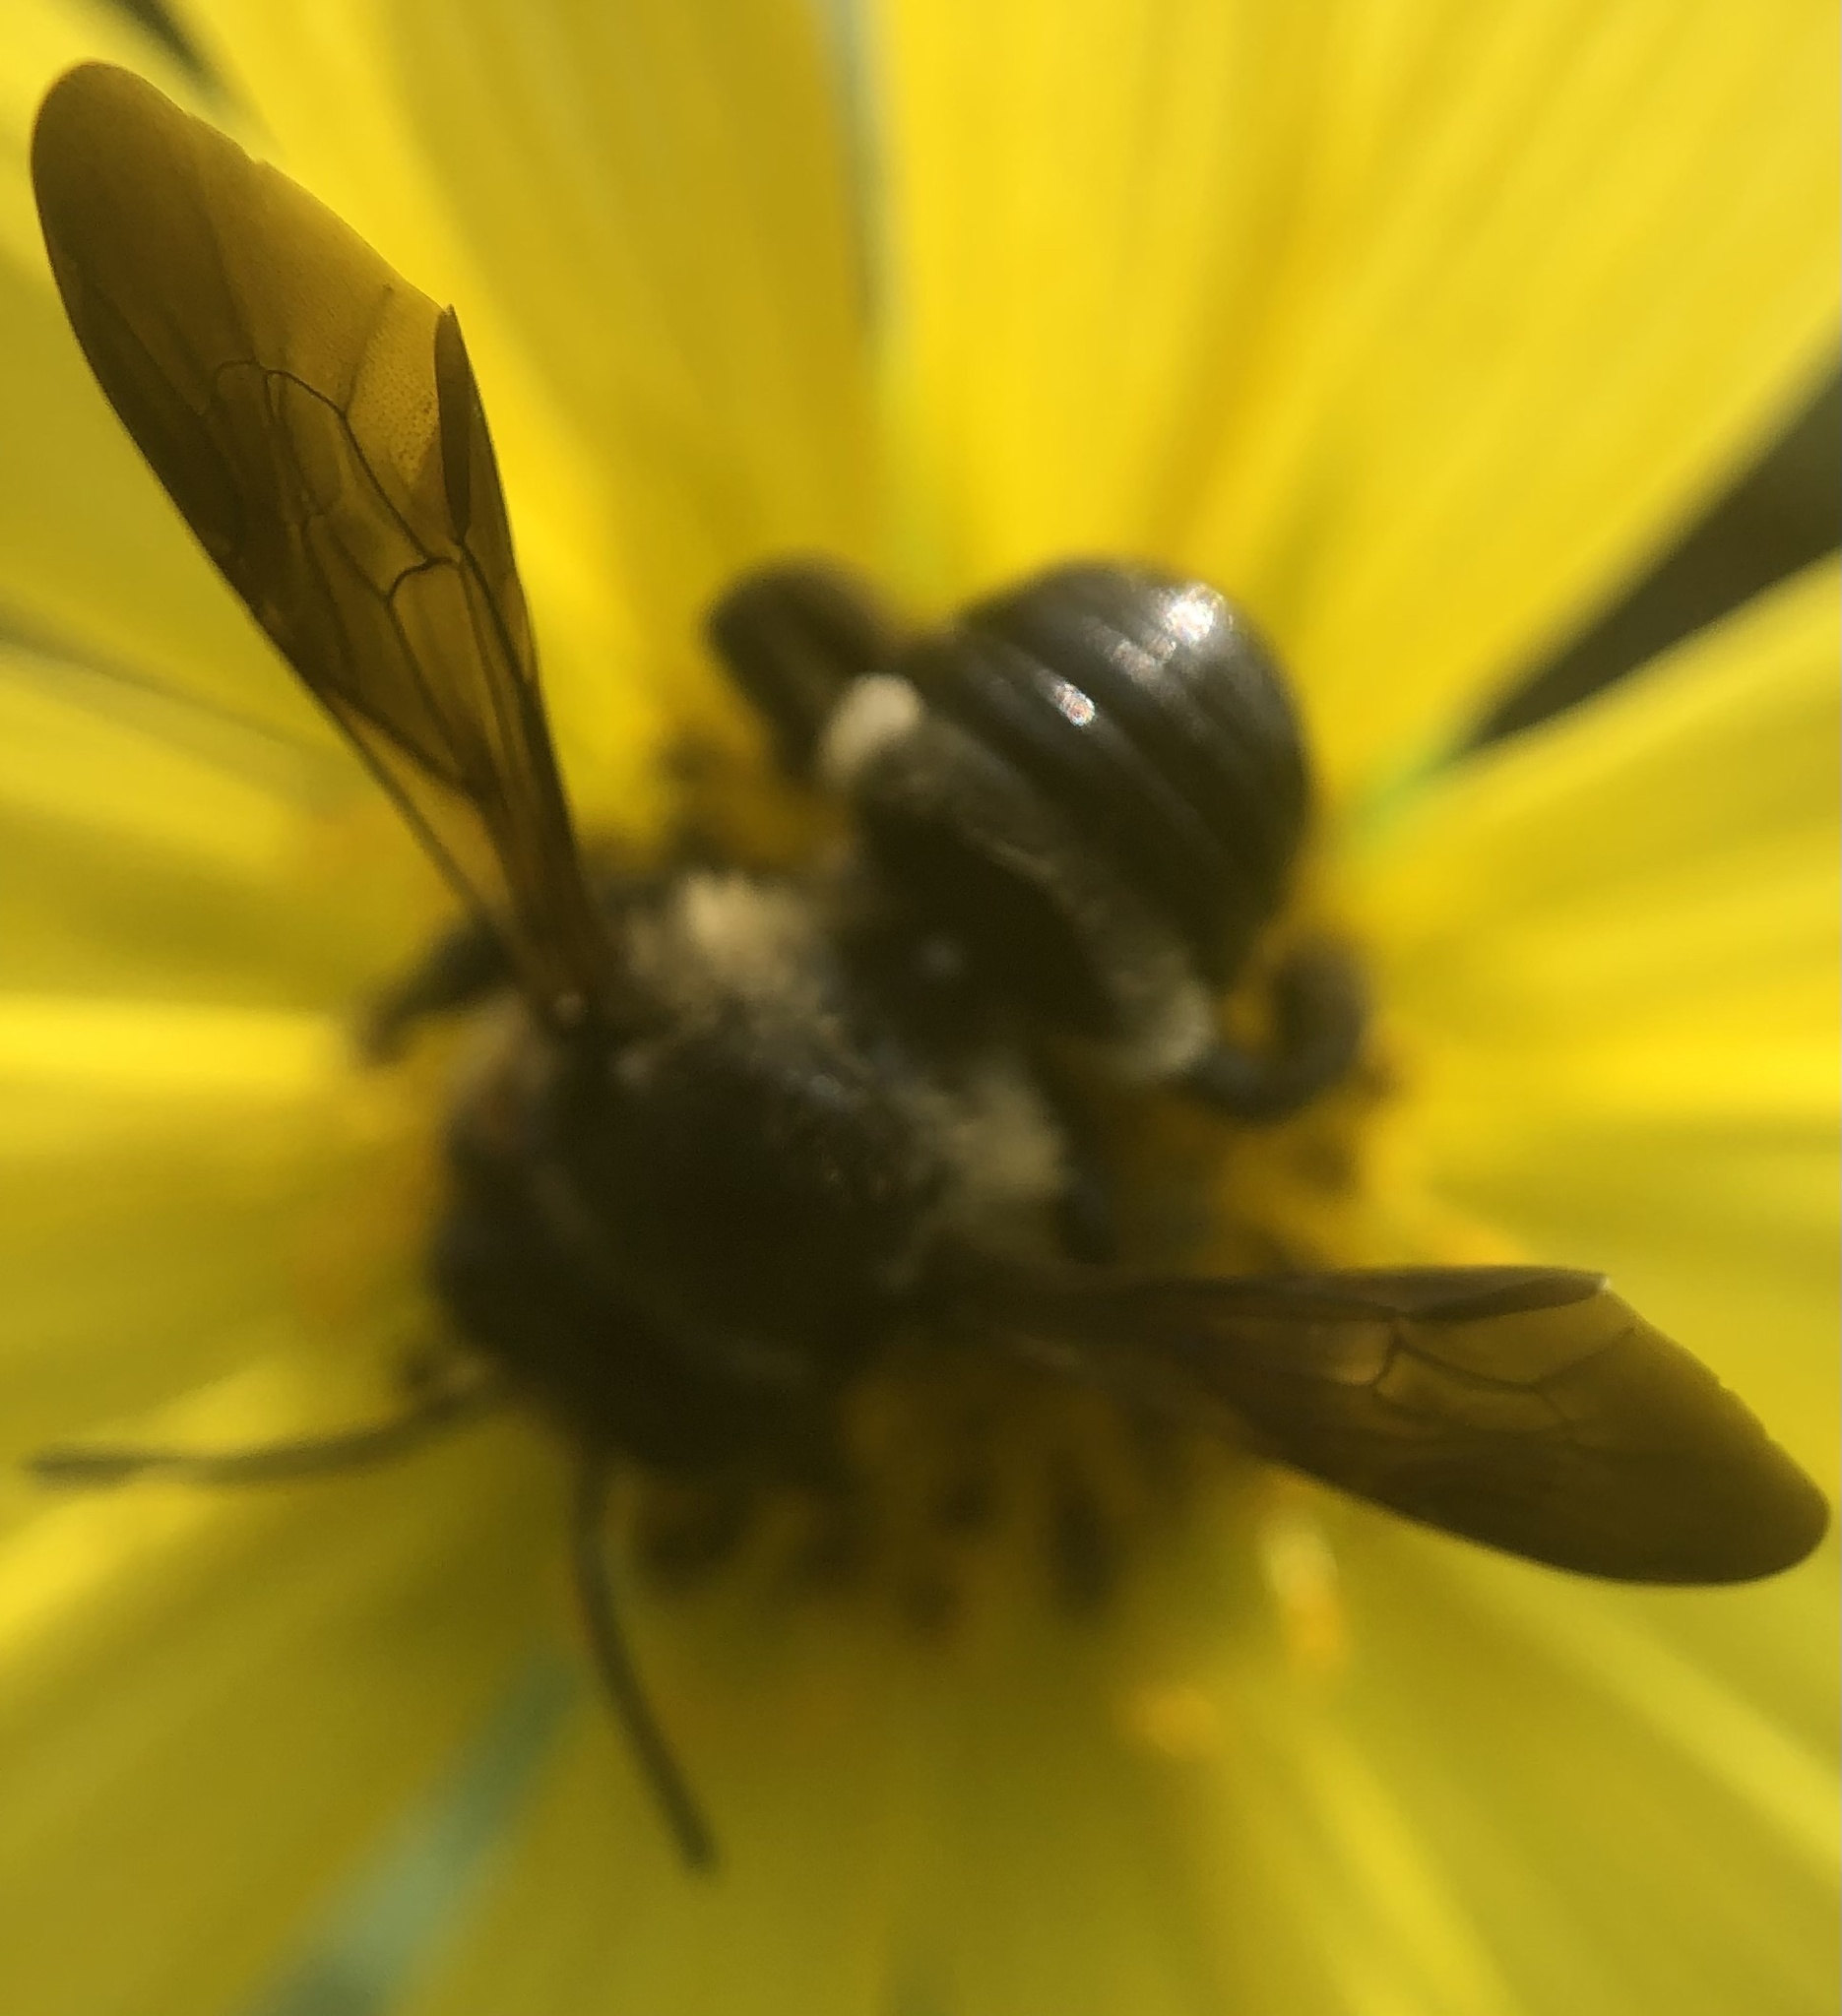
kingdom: Animalia
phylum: Arthropoda
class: Insecta
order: Hymenoptera
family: Megachilidae
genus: Megachile
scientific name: Megachile xylocopoides
